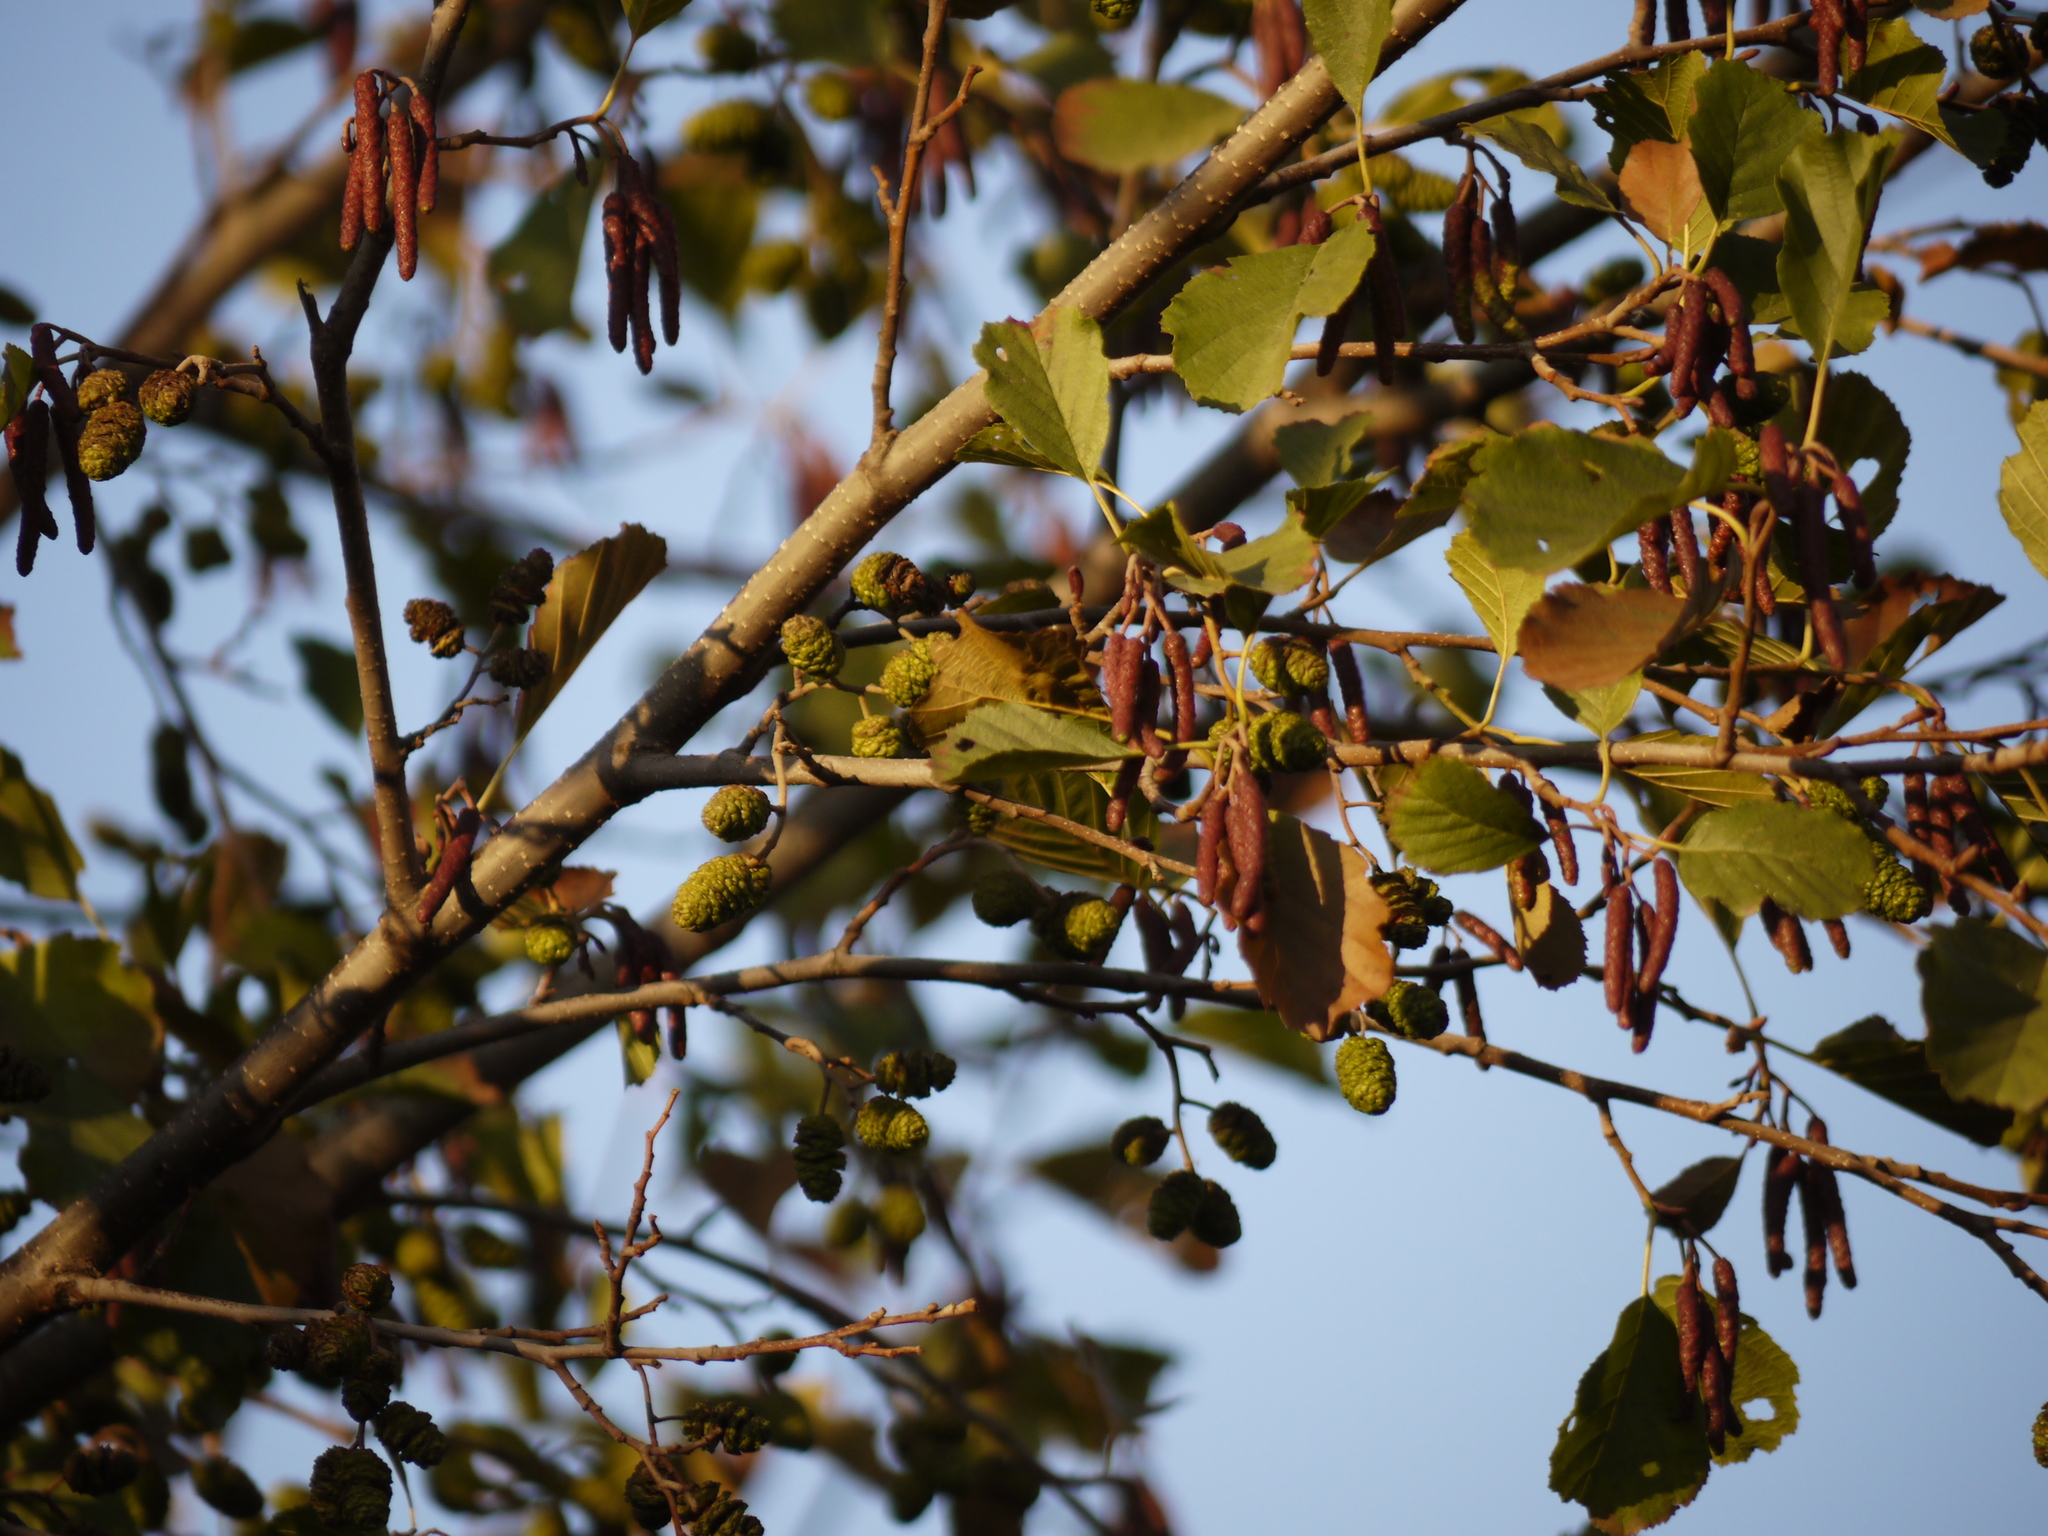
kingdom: Plantae
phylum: Tracheophyta
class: Magnoliopsida
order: Fagales
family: Betulaceae
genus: Alnus
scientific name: Alnus glutinosa
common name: Black alder
